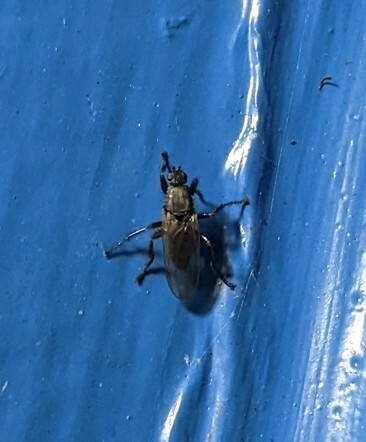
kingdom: Animalia
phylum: Arthropoda
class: Insecta
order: Diptera
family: Coelopidae
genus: Coelopa
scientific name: Coelopa frigida
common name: Kelp fly
